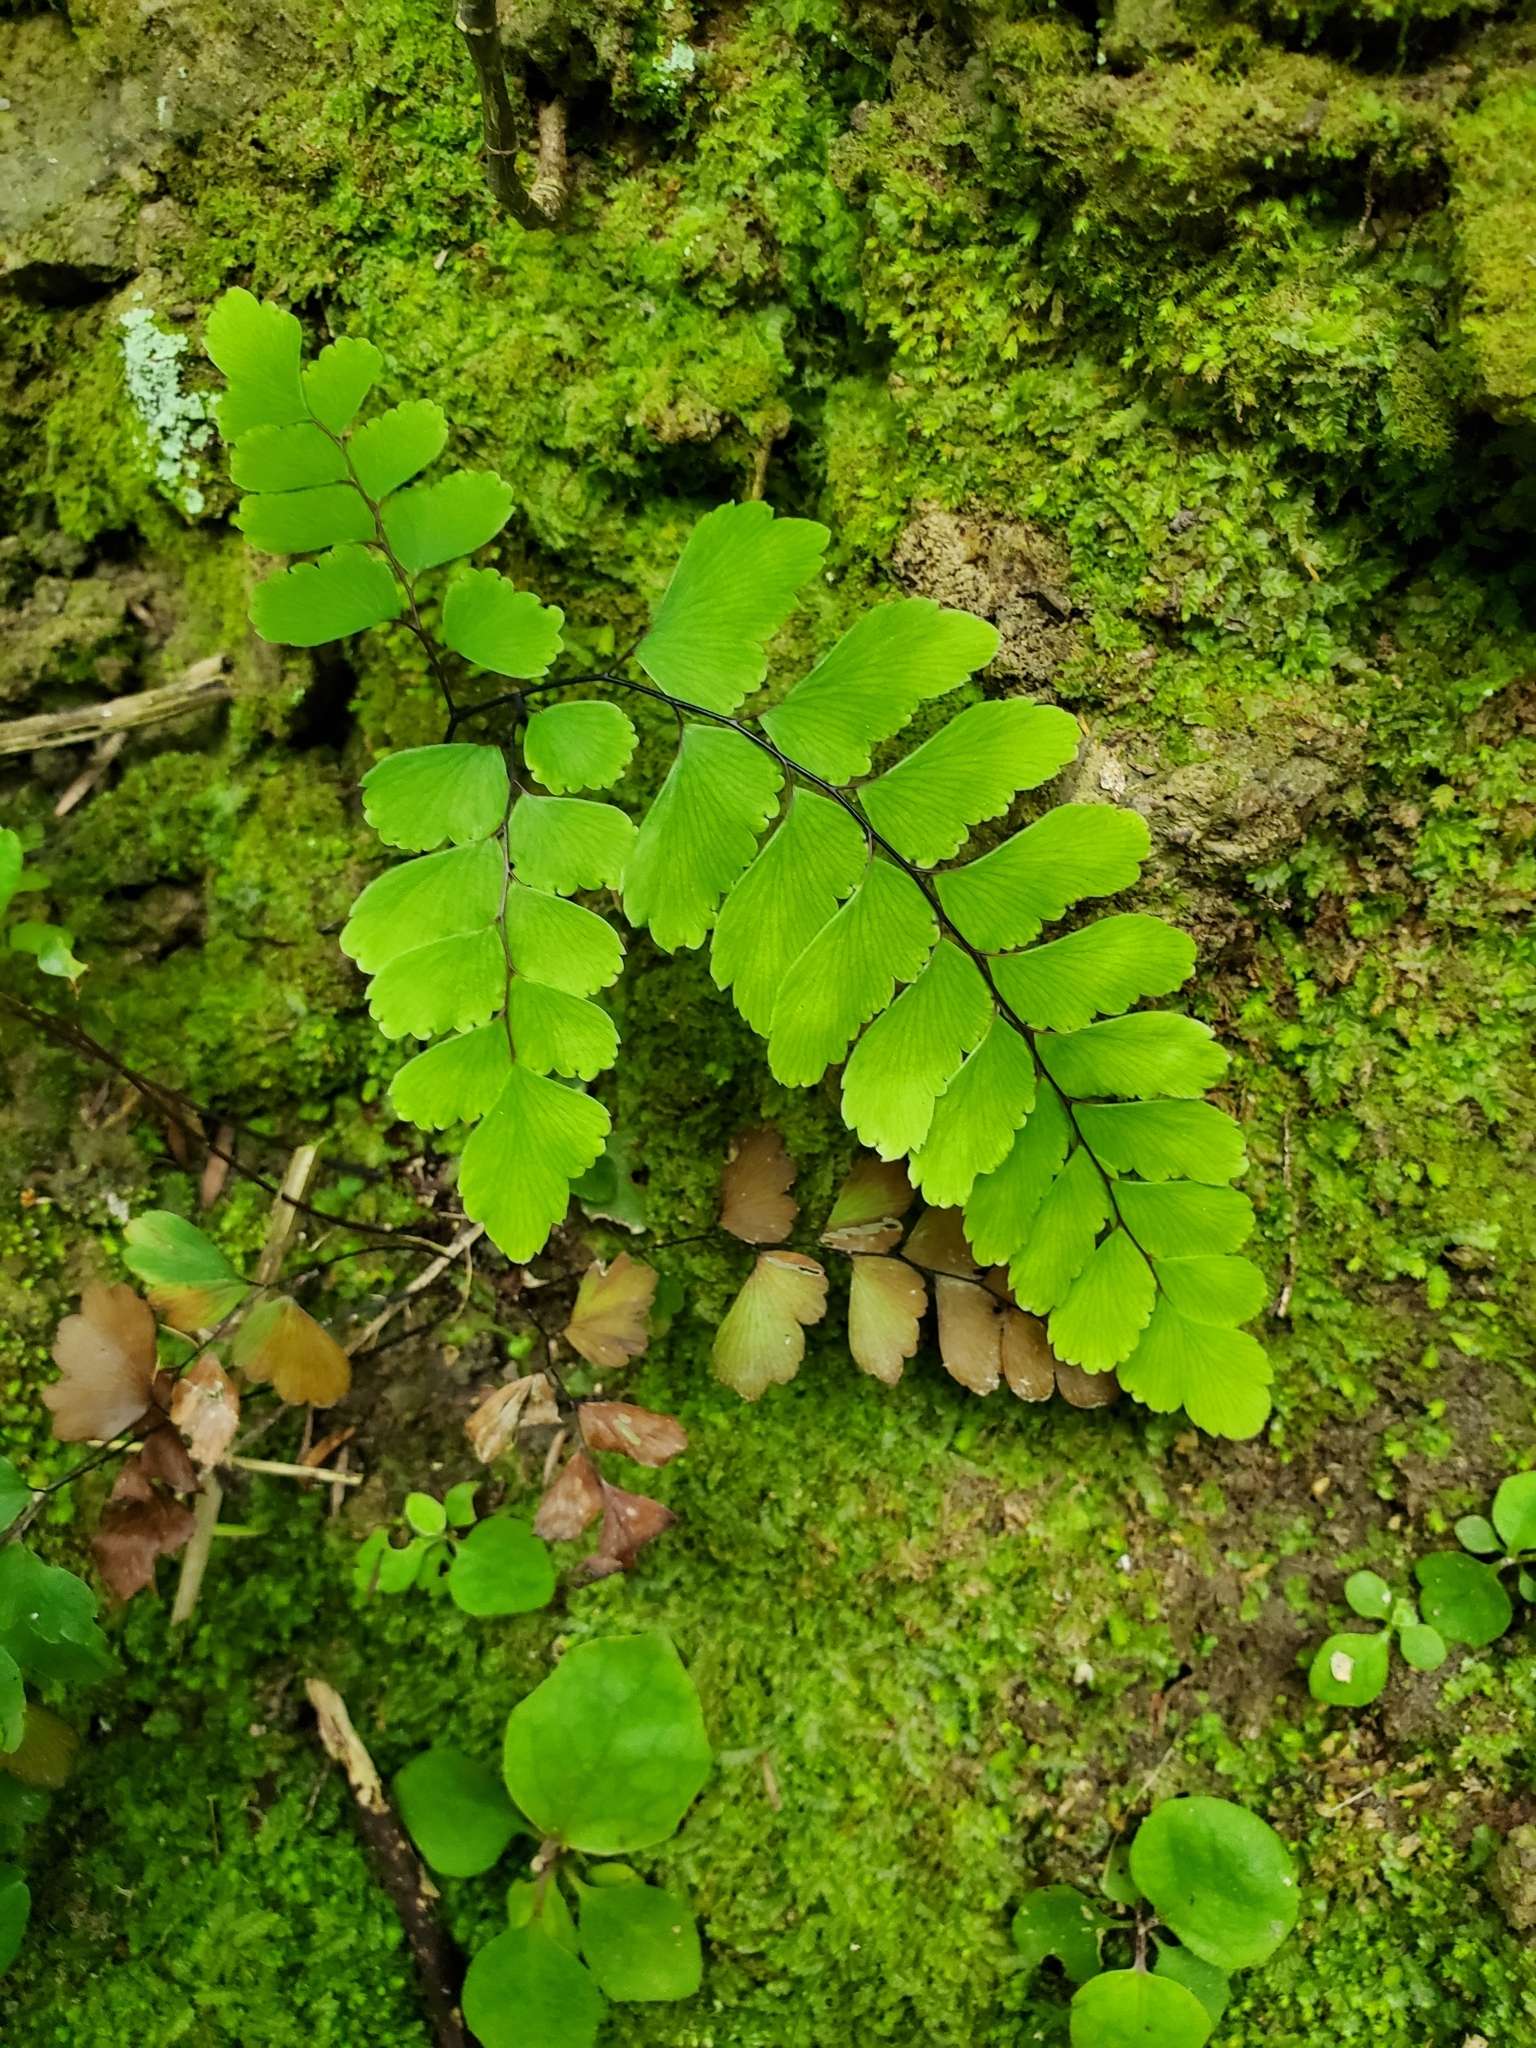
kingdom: Plantae
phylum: Tracheophyta
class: Polypodiopsida
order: Polypodiales
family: Pteridaceae
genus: Adiantum
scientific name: Adiantum cunninghamii
